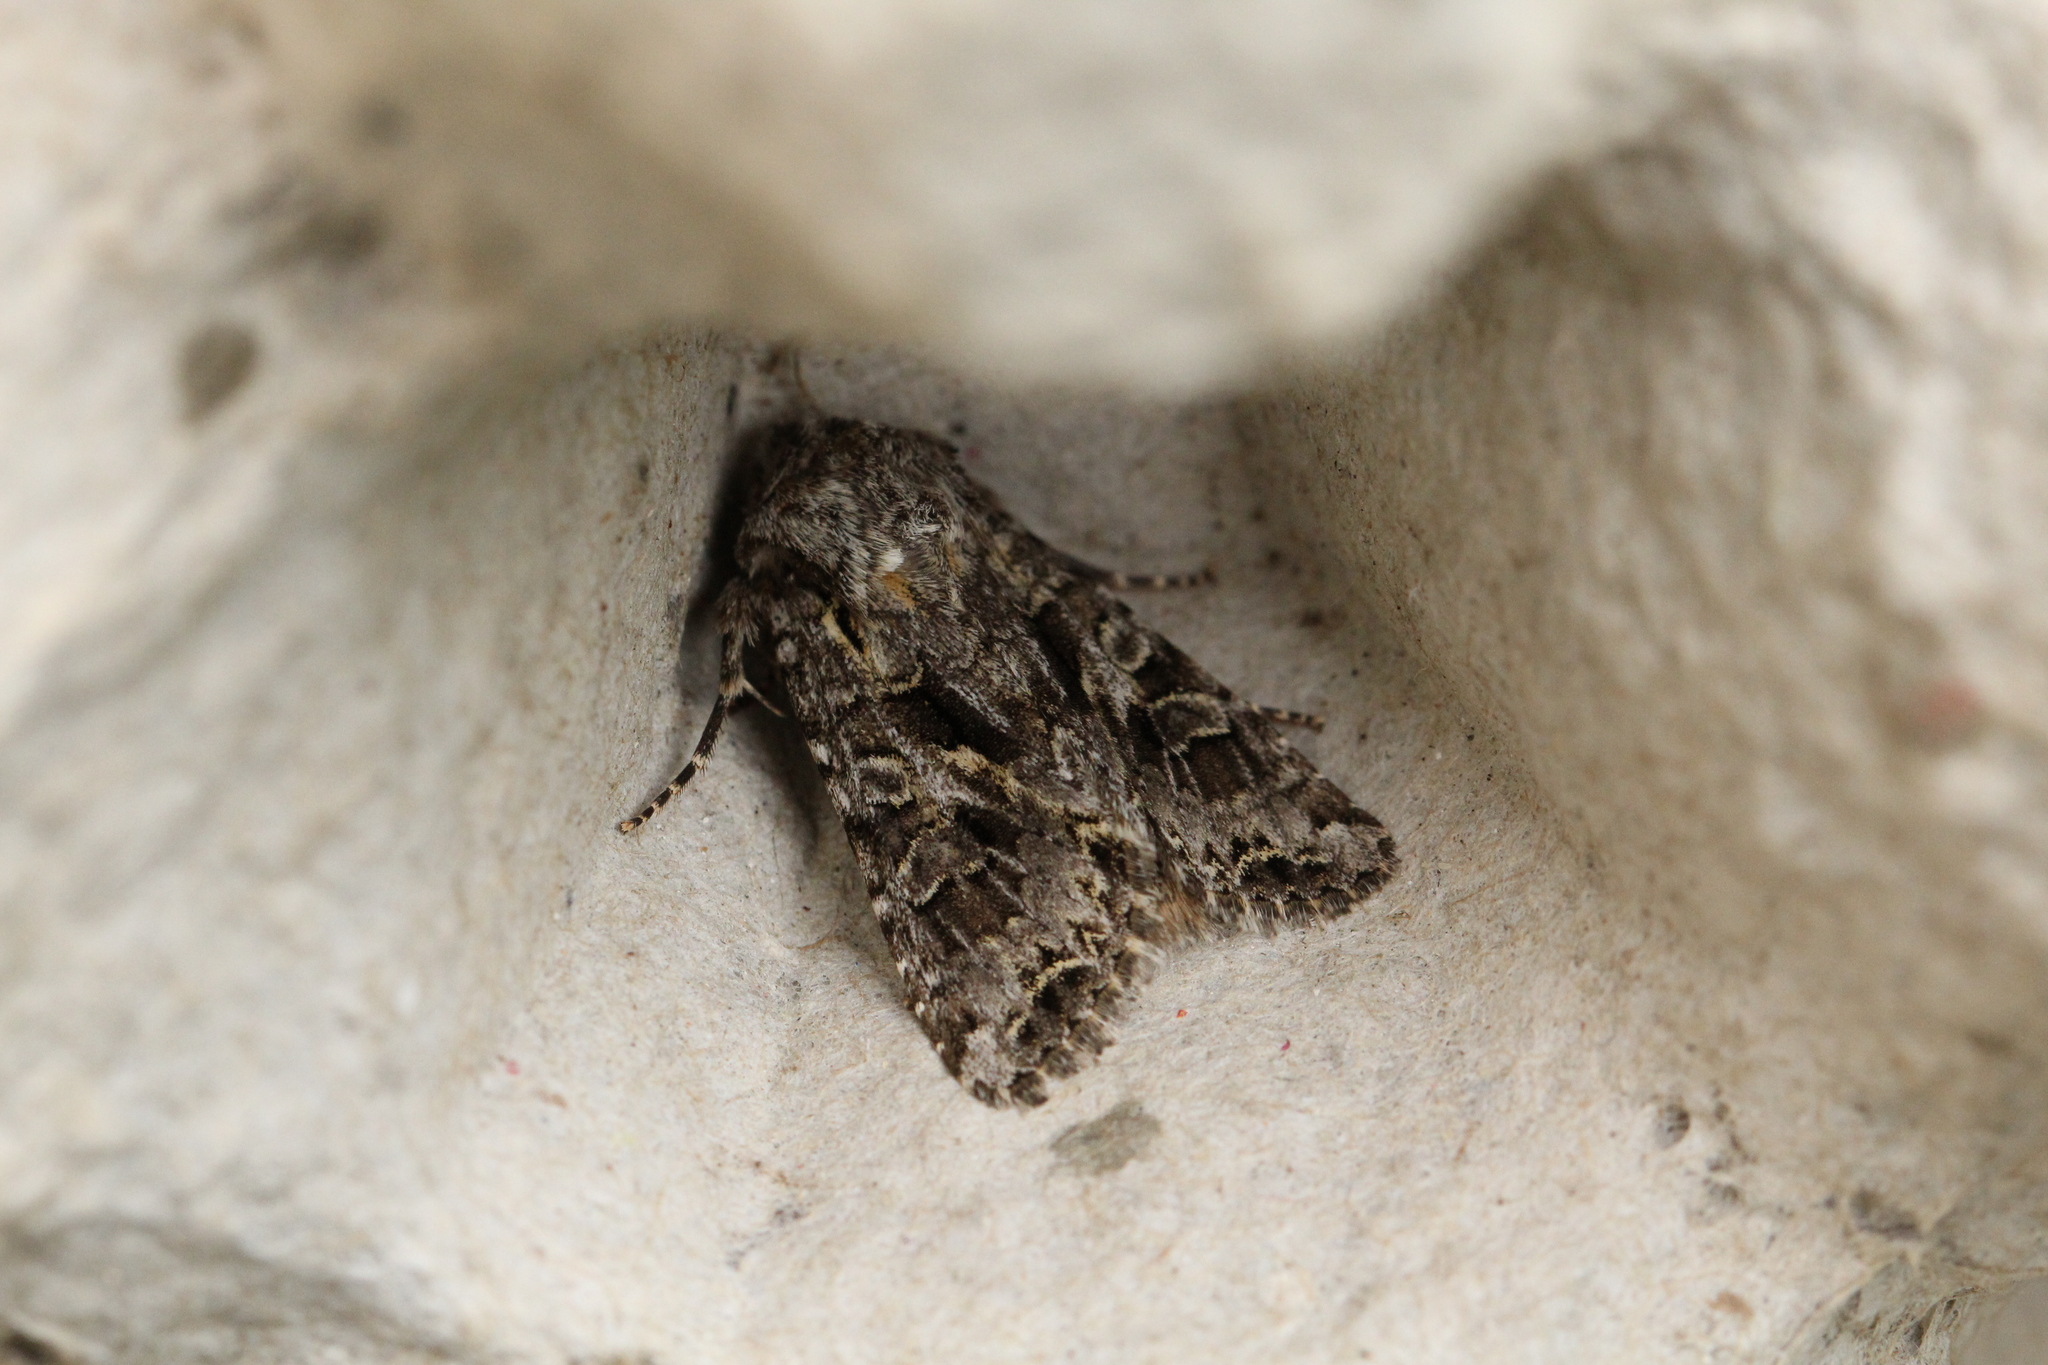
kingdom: Animalia
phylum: Arthropoda
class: Insecta
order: Lepidoptera
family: Noctuidae
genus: Hada
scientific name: Hada plebeja
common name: Shears
